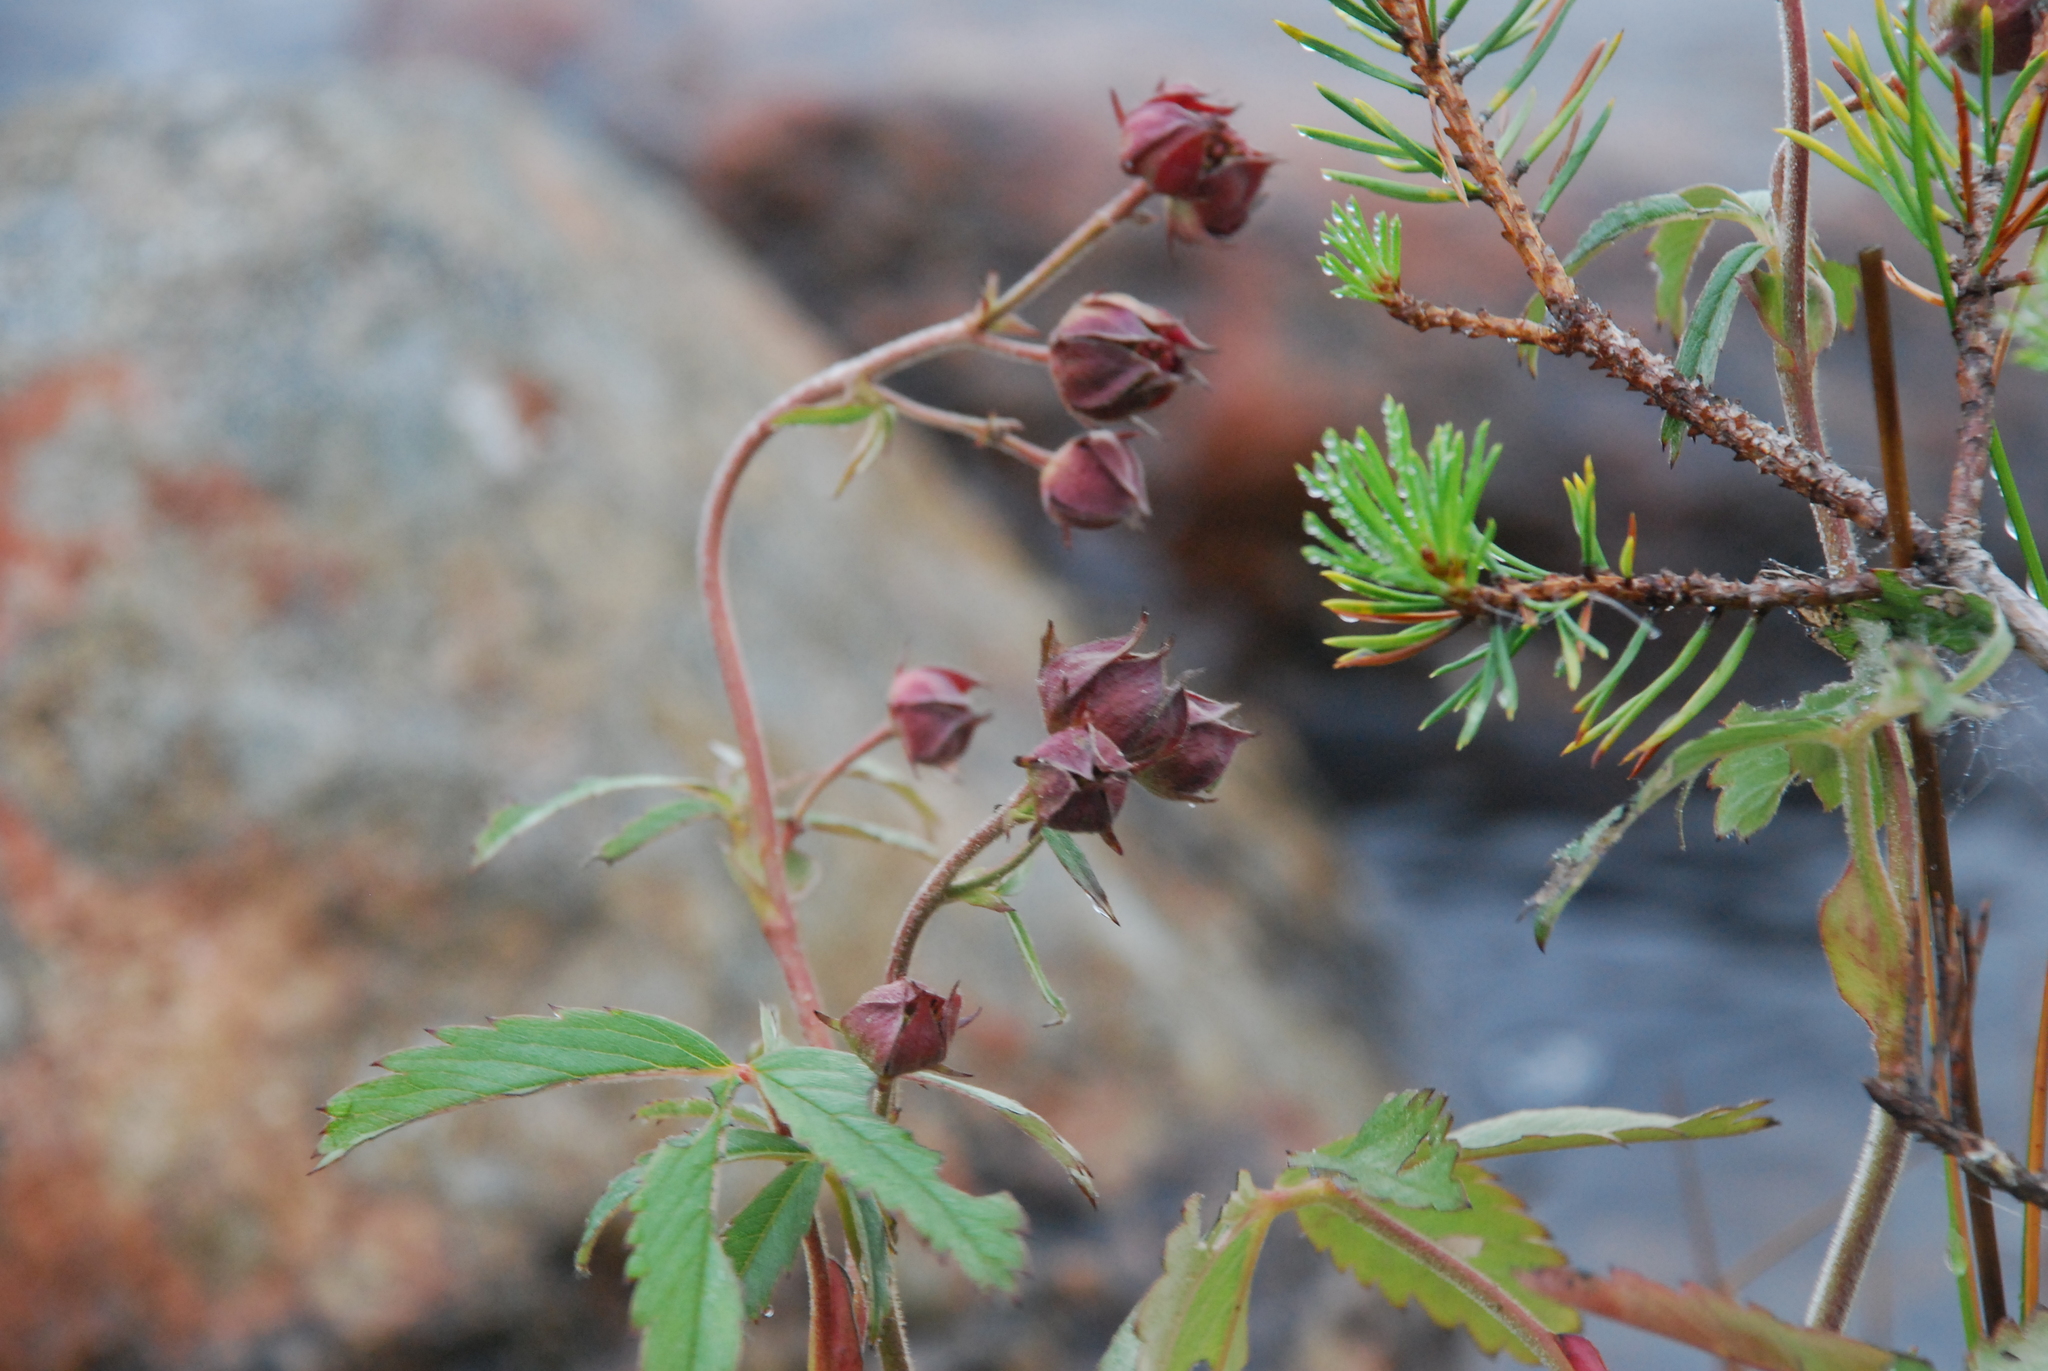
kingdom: Plantae
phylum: Tracheophyta
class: Magnoliopsida
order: Rosales
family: Rosaceae
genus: Comarum
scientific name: Comarum palustre
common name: Marsh cinquefoil
